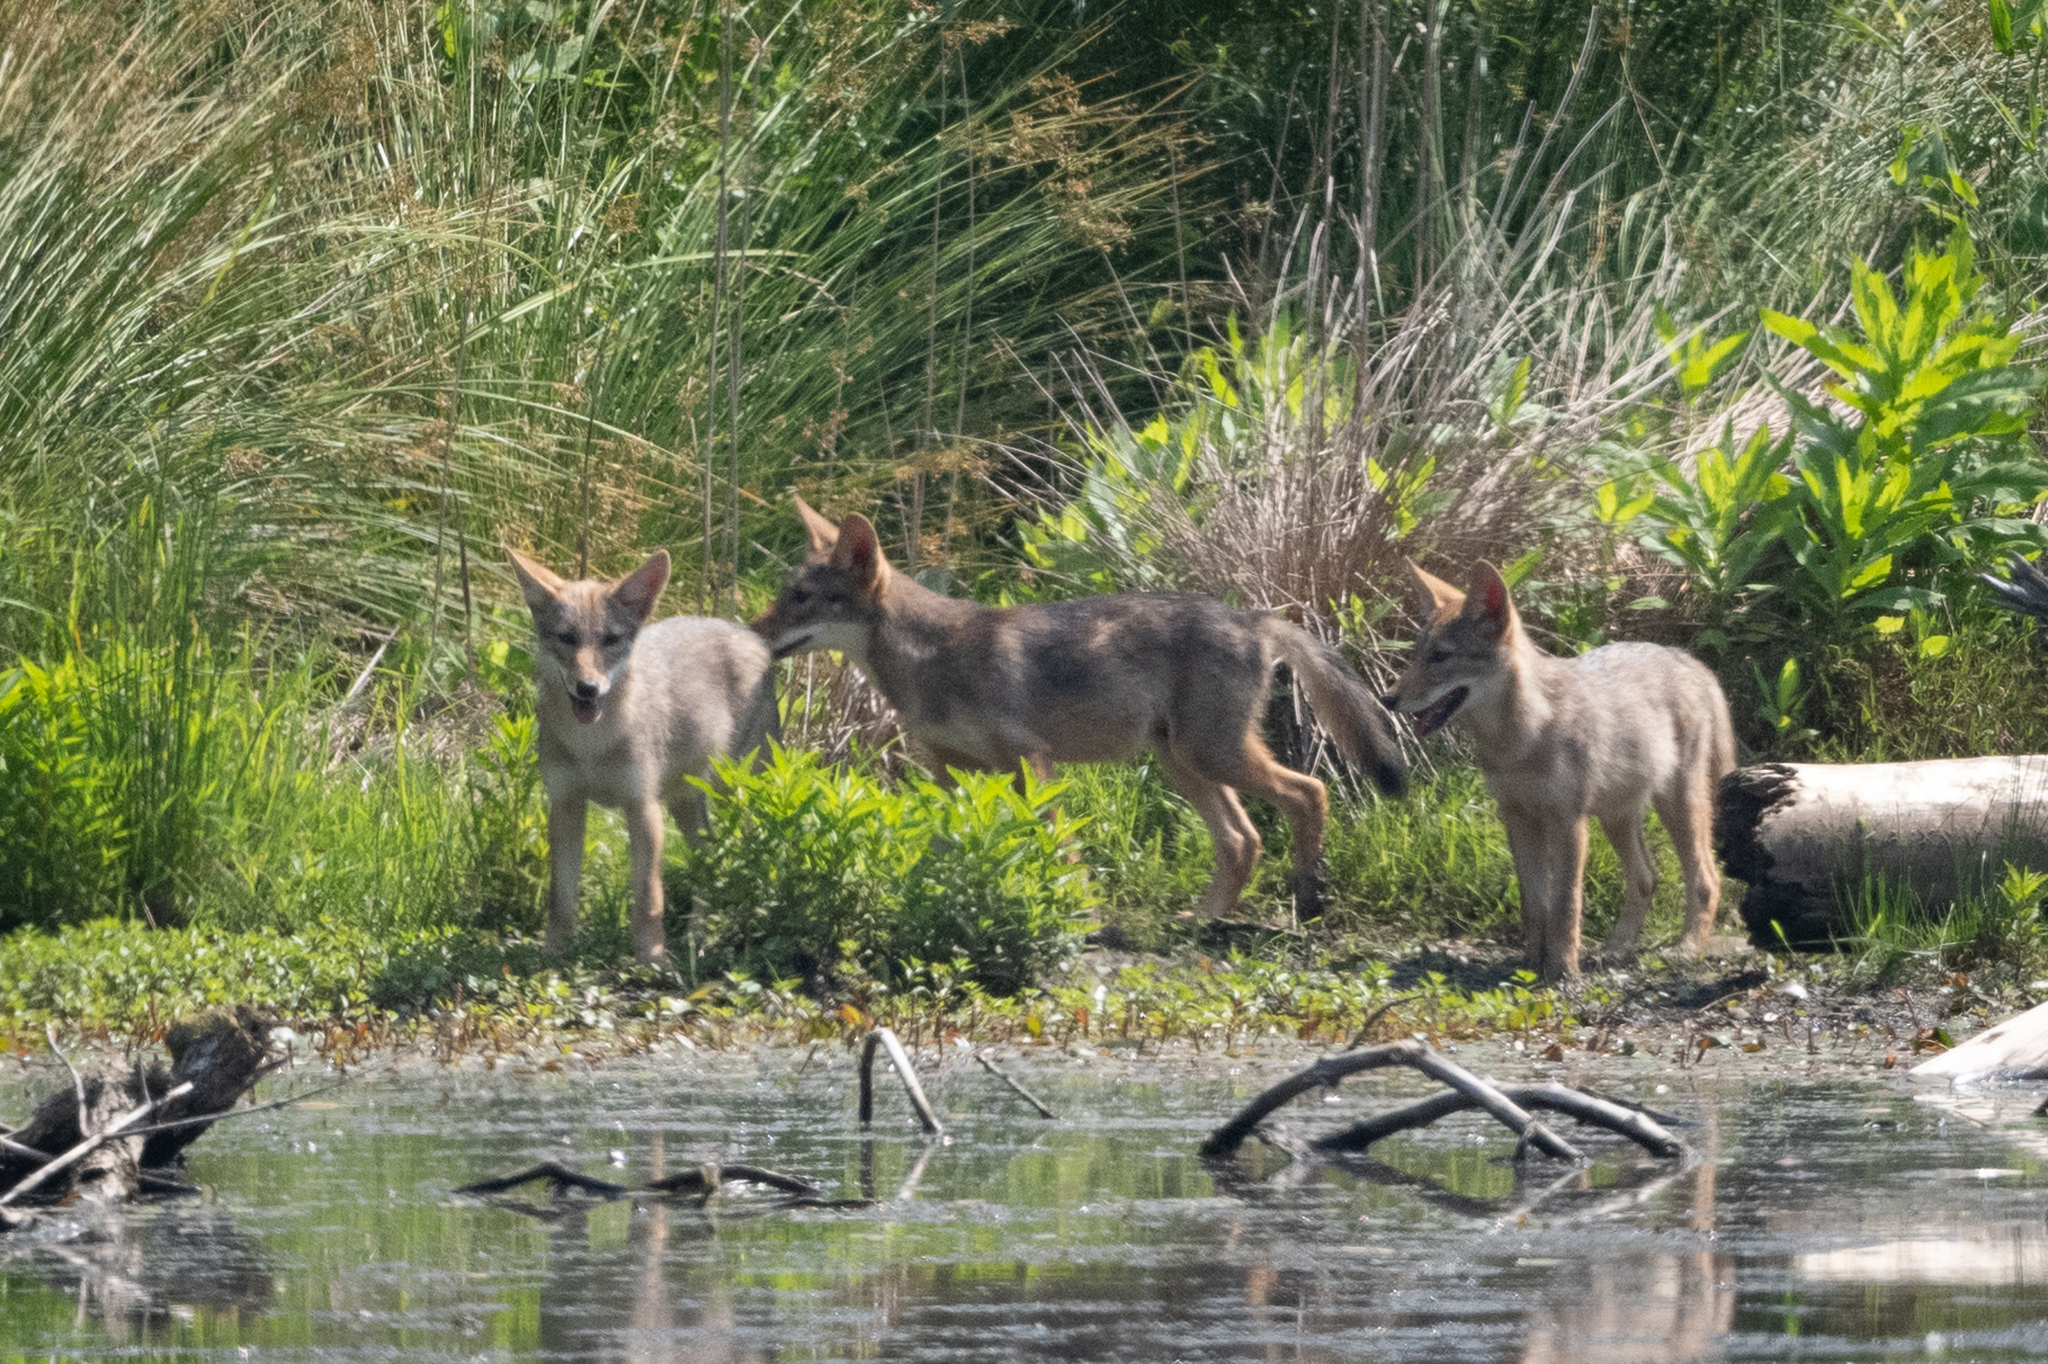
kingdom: Animalia
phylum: Chordata
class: Mammalia
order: Carnivora
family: Canidae
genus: Canis
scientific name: Canis latrans
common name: Coyote
